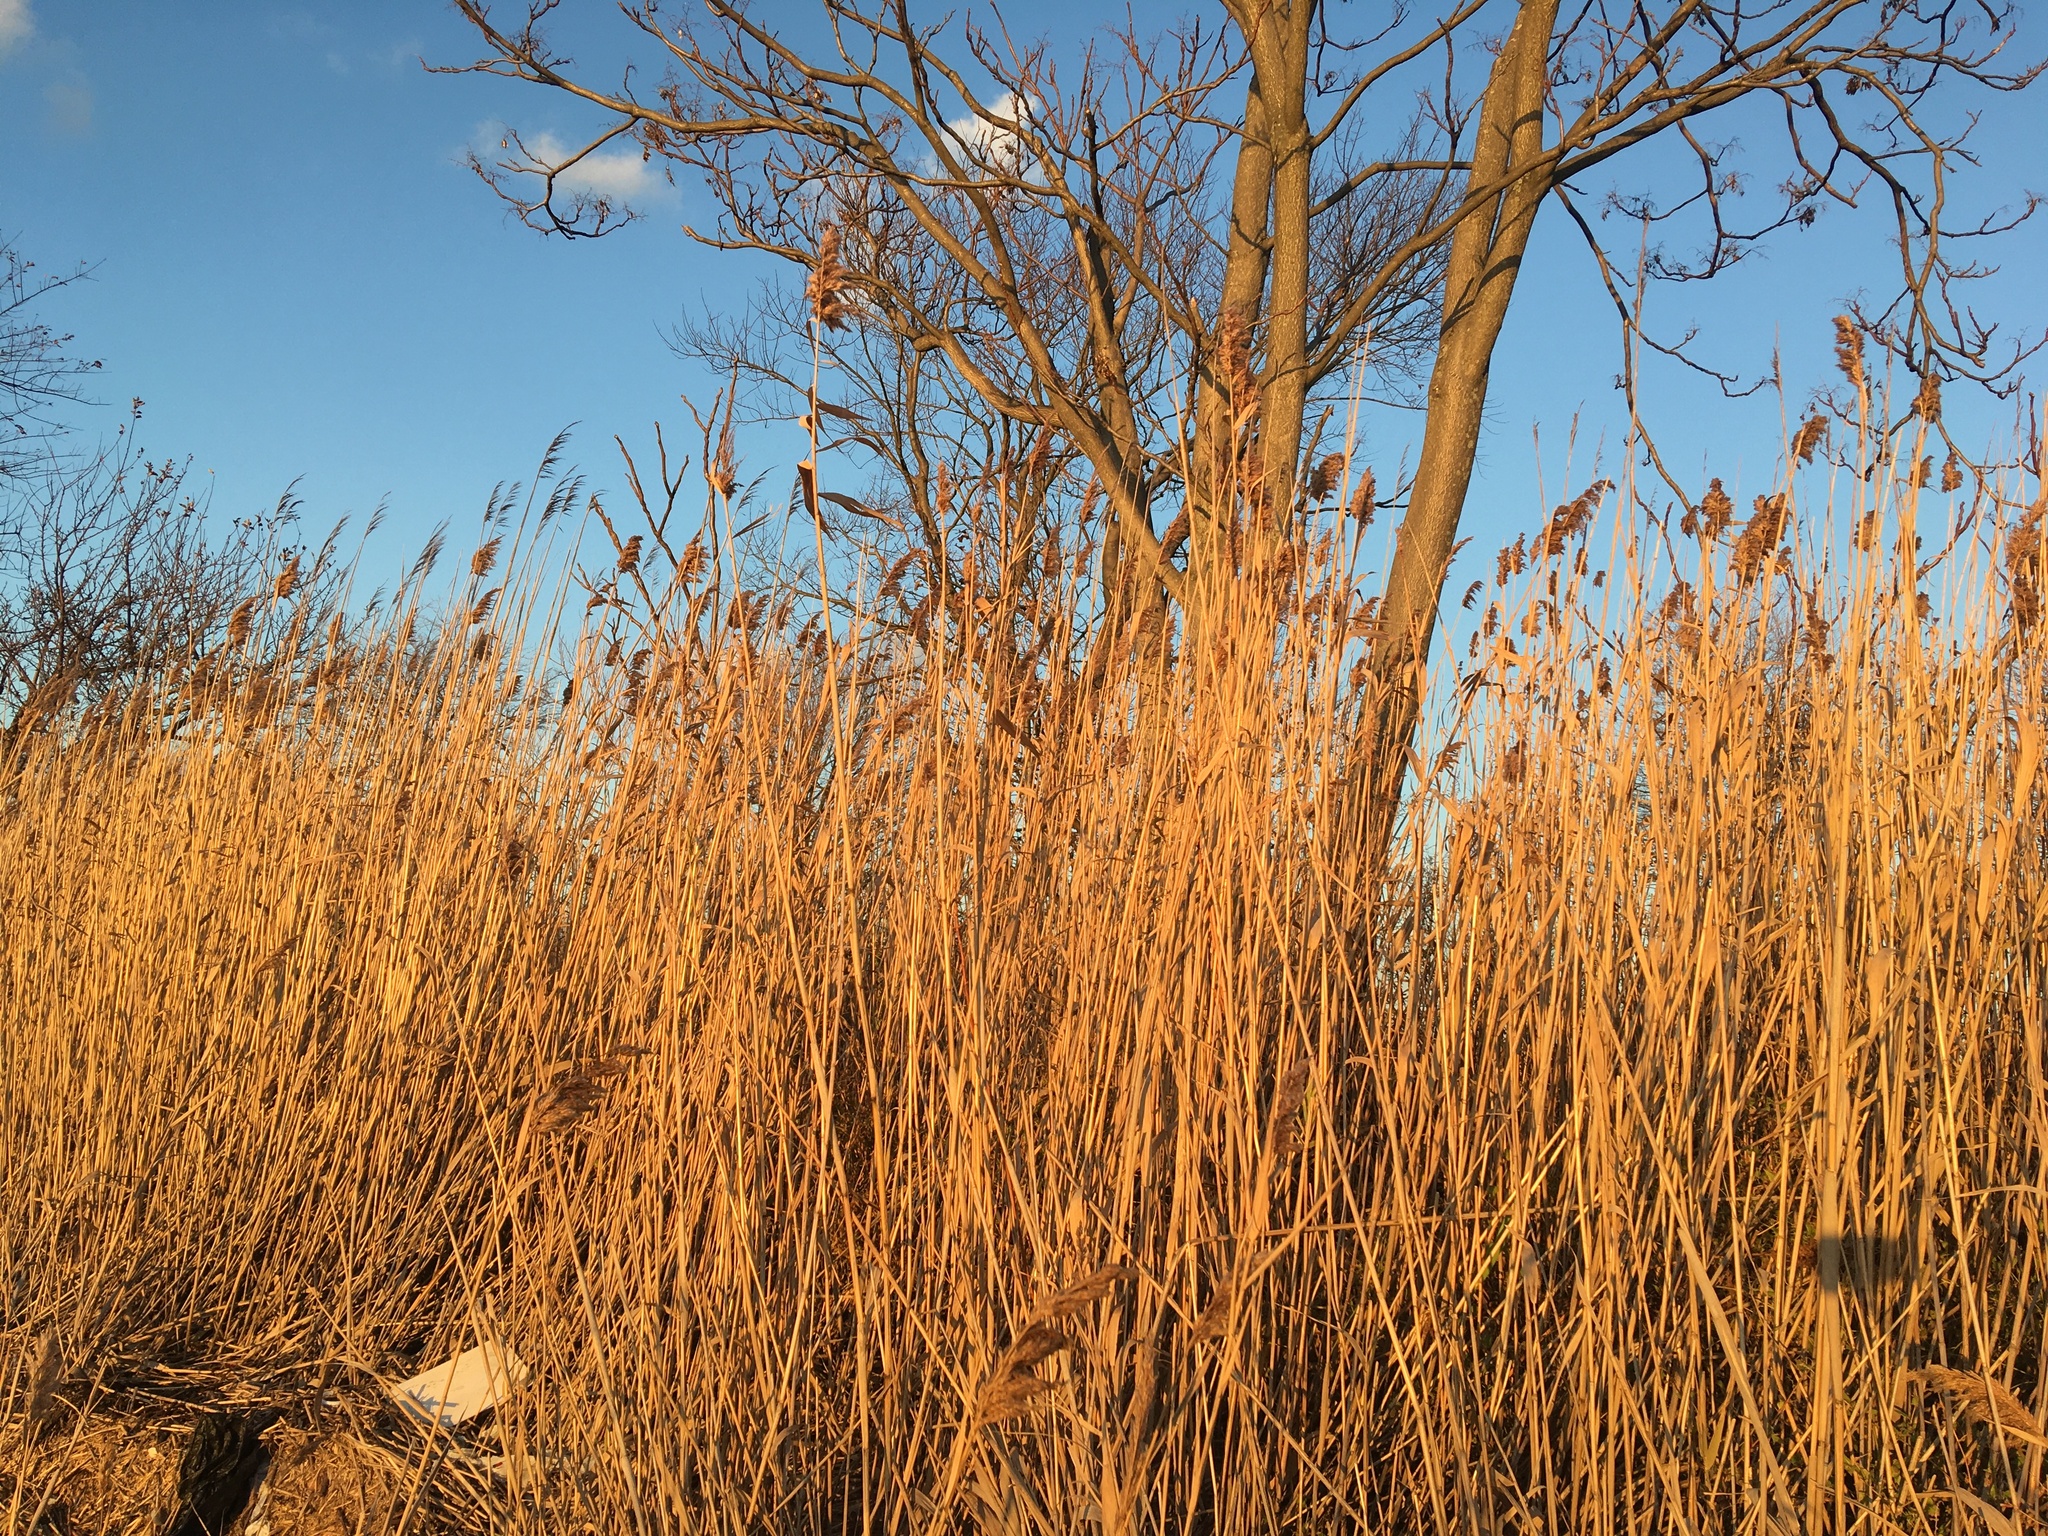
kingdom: Plantae
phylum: Tracheophyta
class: Liliopsida
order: Poales
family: Poaceae
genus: Phragmites
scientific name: Phragmites australis
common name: Common reed
